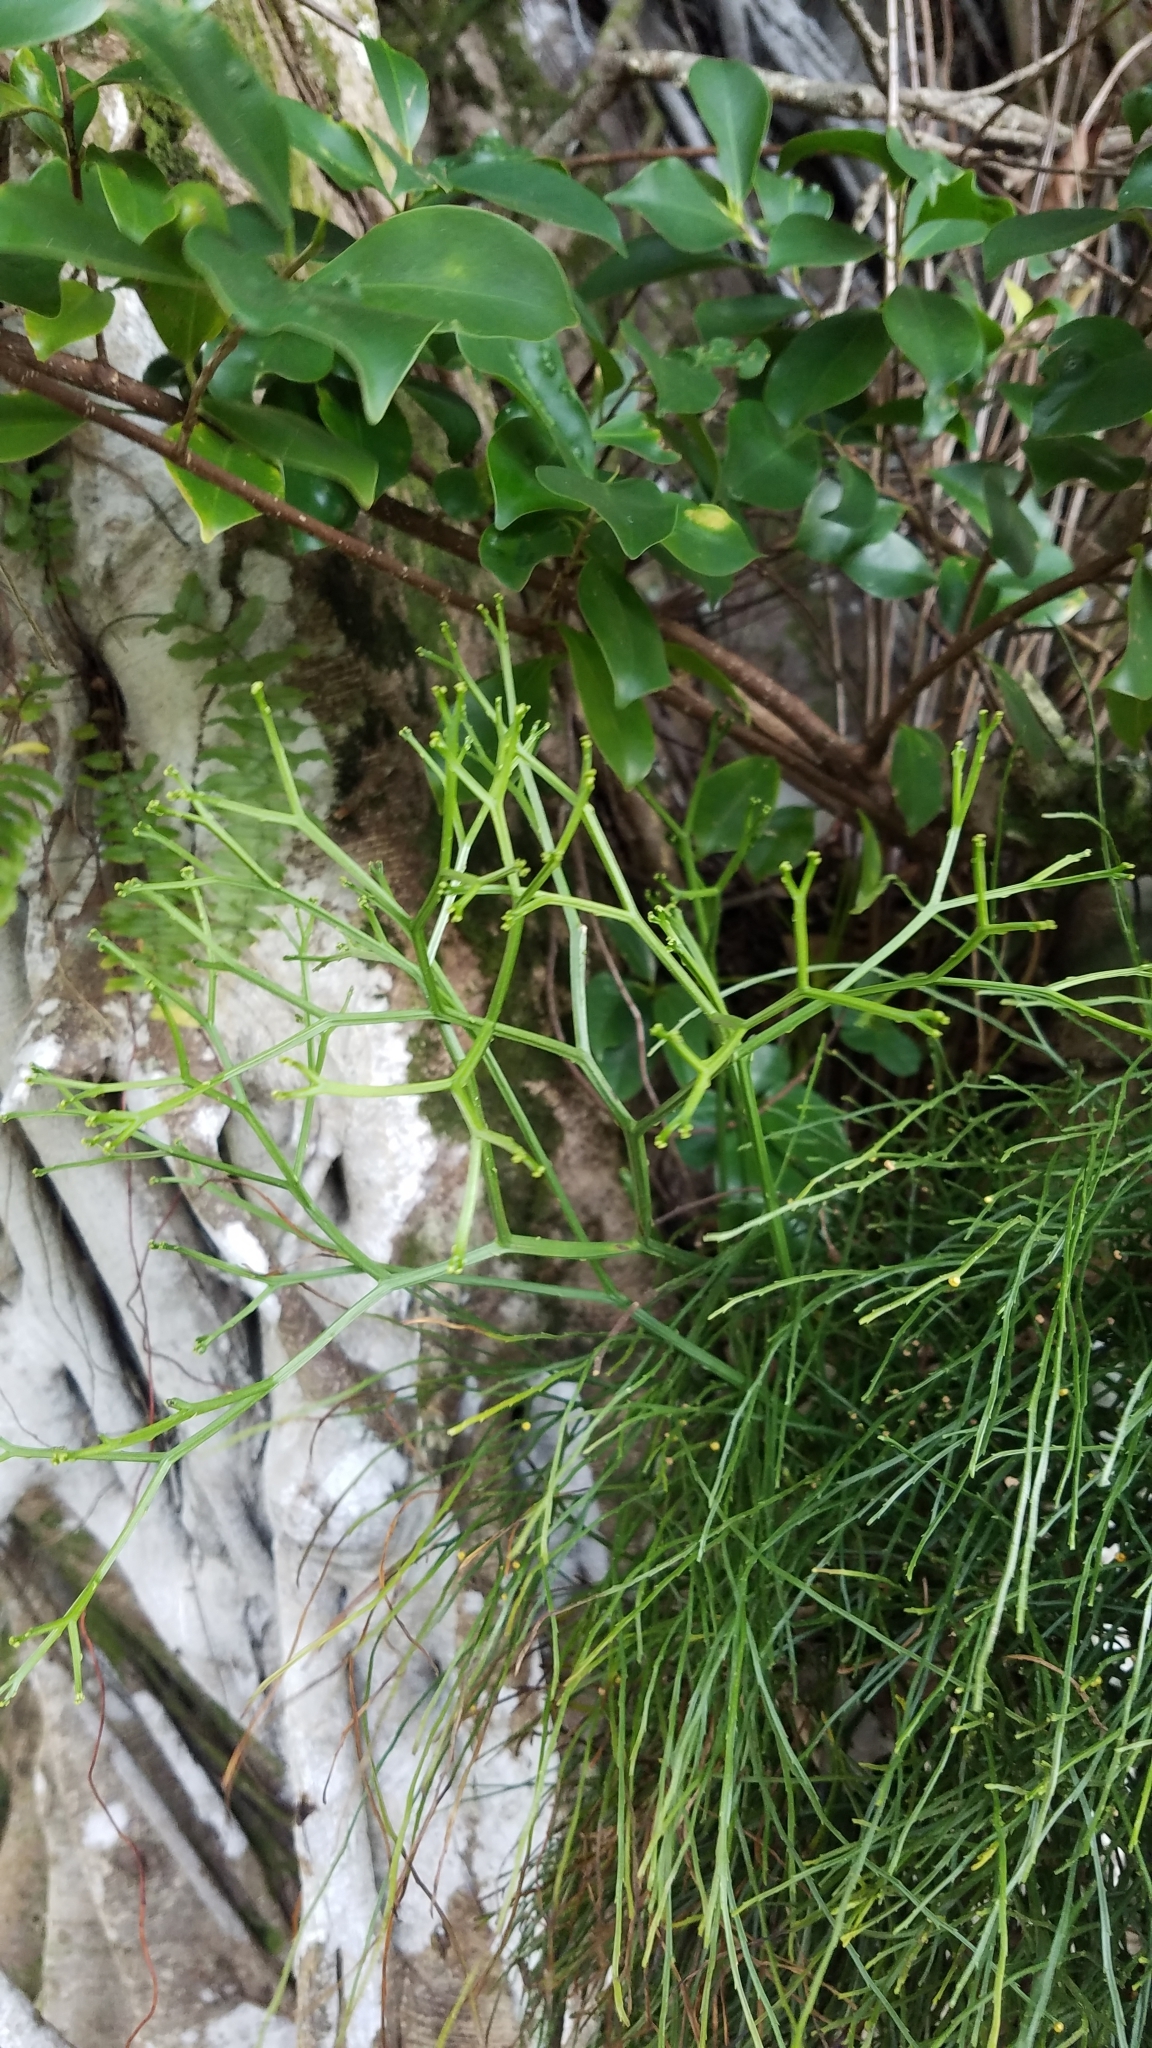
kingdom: Plantae
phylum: Tracheophyta
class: Polypodiopsida
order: Psilotales
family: Psilotaceae
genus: Psilotum
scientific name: Psilotum nudum
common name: Skeleton fork fern
